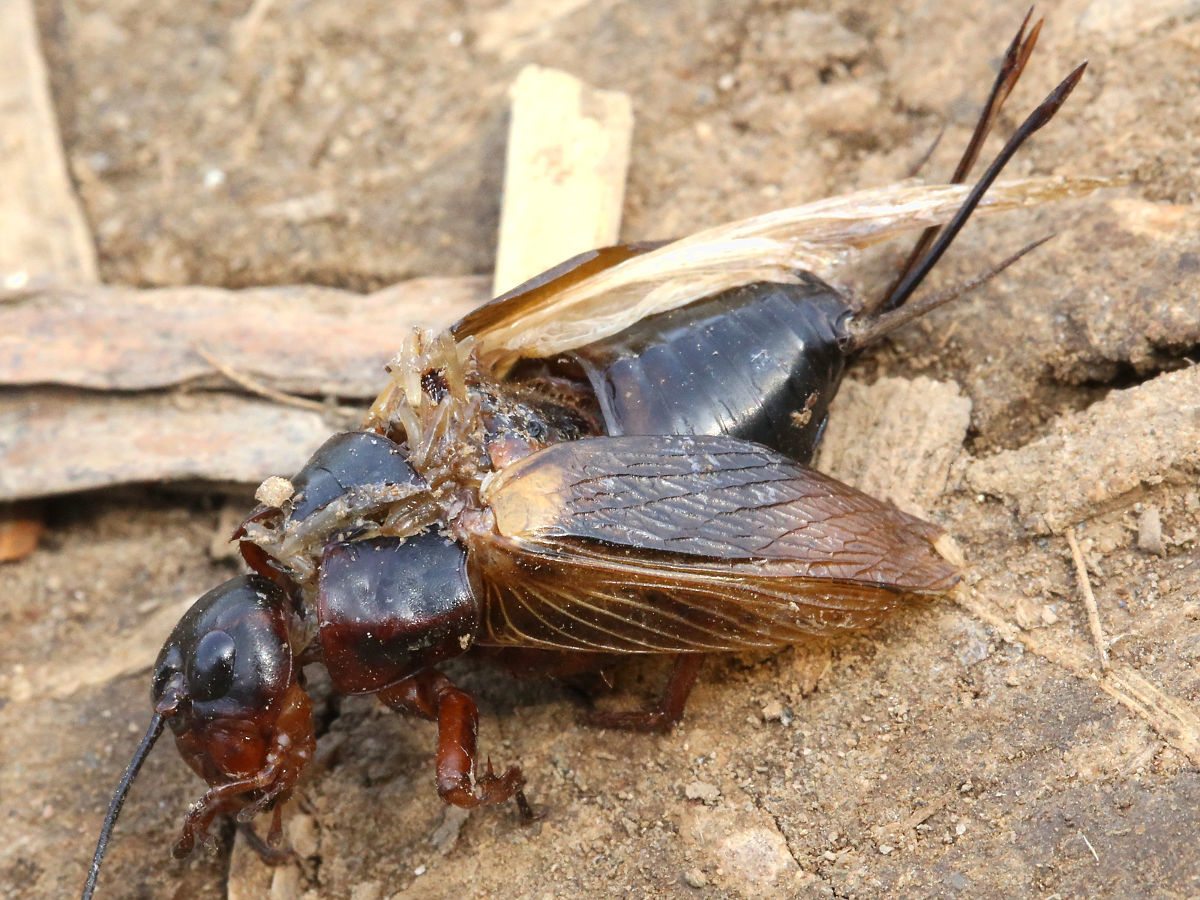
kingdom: Animalia
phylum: Arthropoda
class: Insecta
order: Orthoptera
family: Gryllidae
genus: Gryllus
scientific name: Gryllus bimaculatus
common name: Two-spotted cricket
